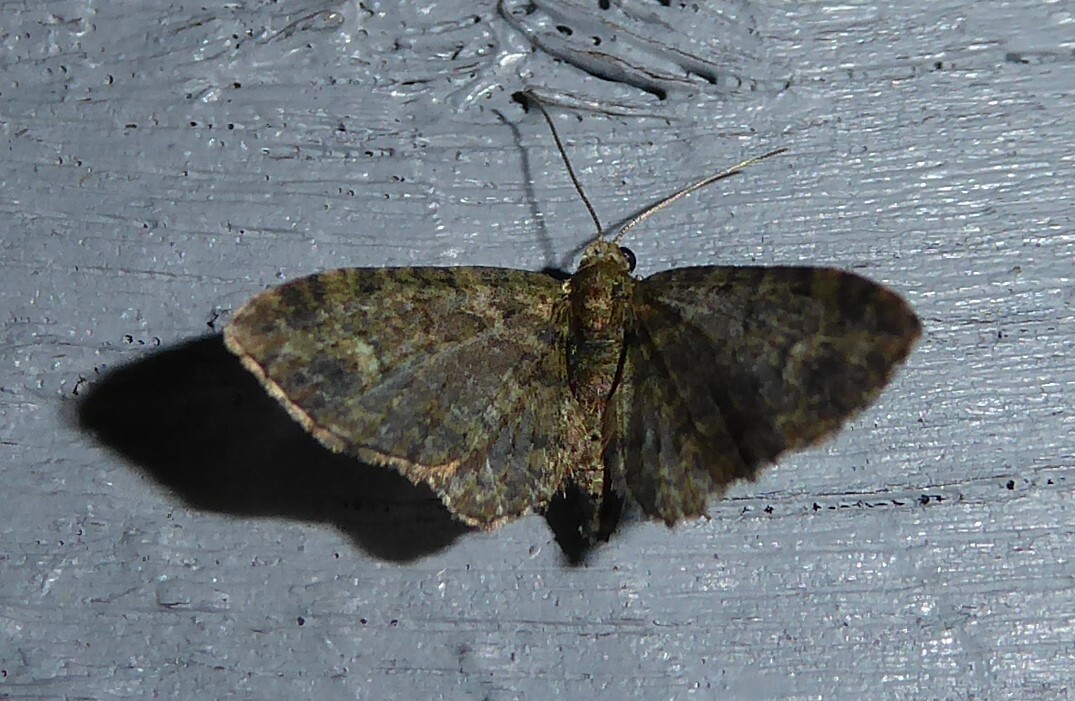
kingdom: Animalia
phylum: Arthropoda
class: Insecta
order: Lepidoptera
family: Geometridae
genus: Pasiphilodes
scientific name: Pasiphilodes testulata
